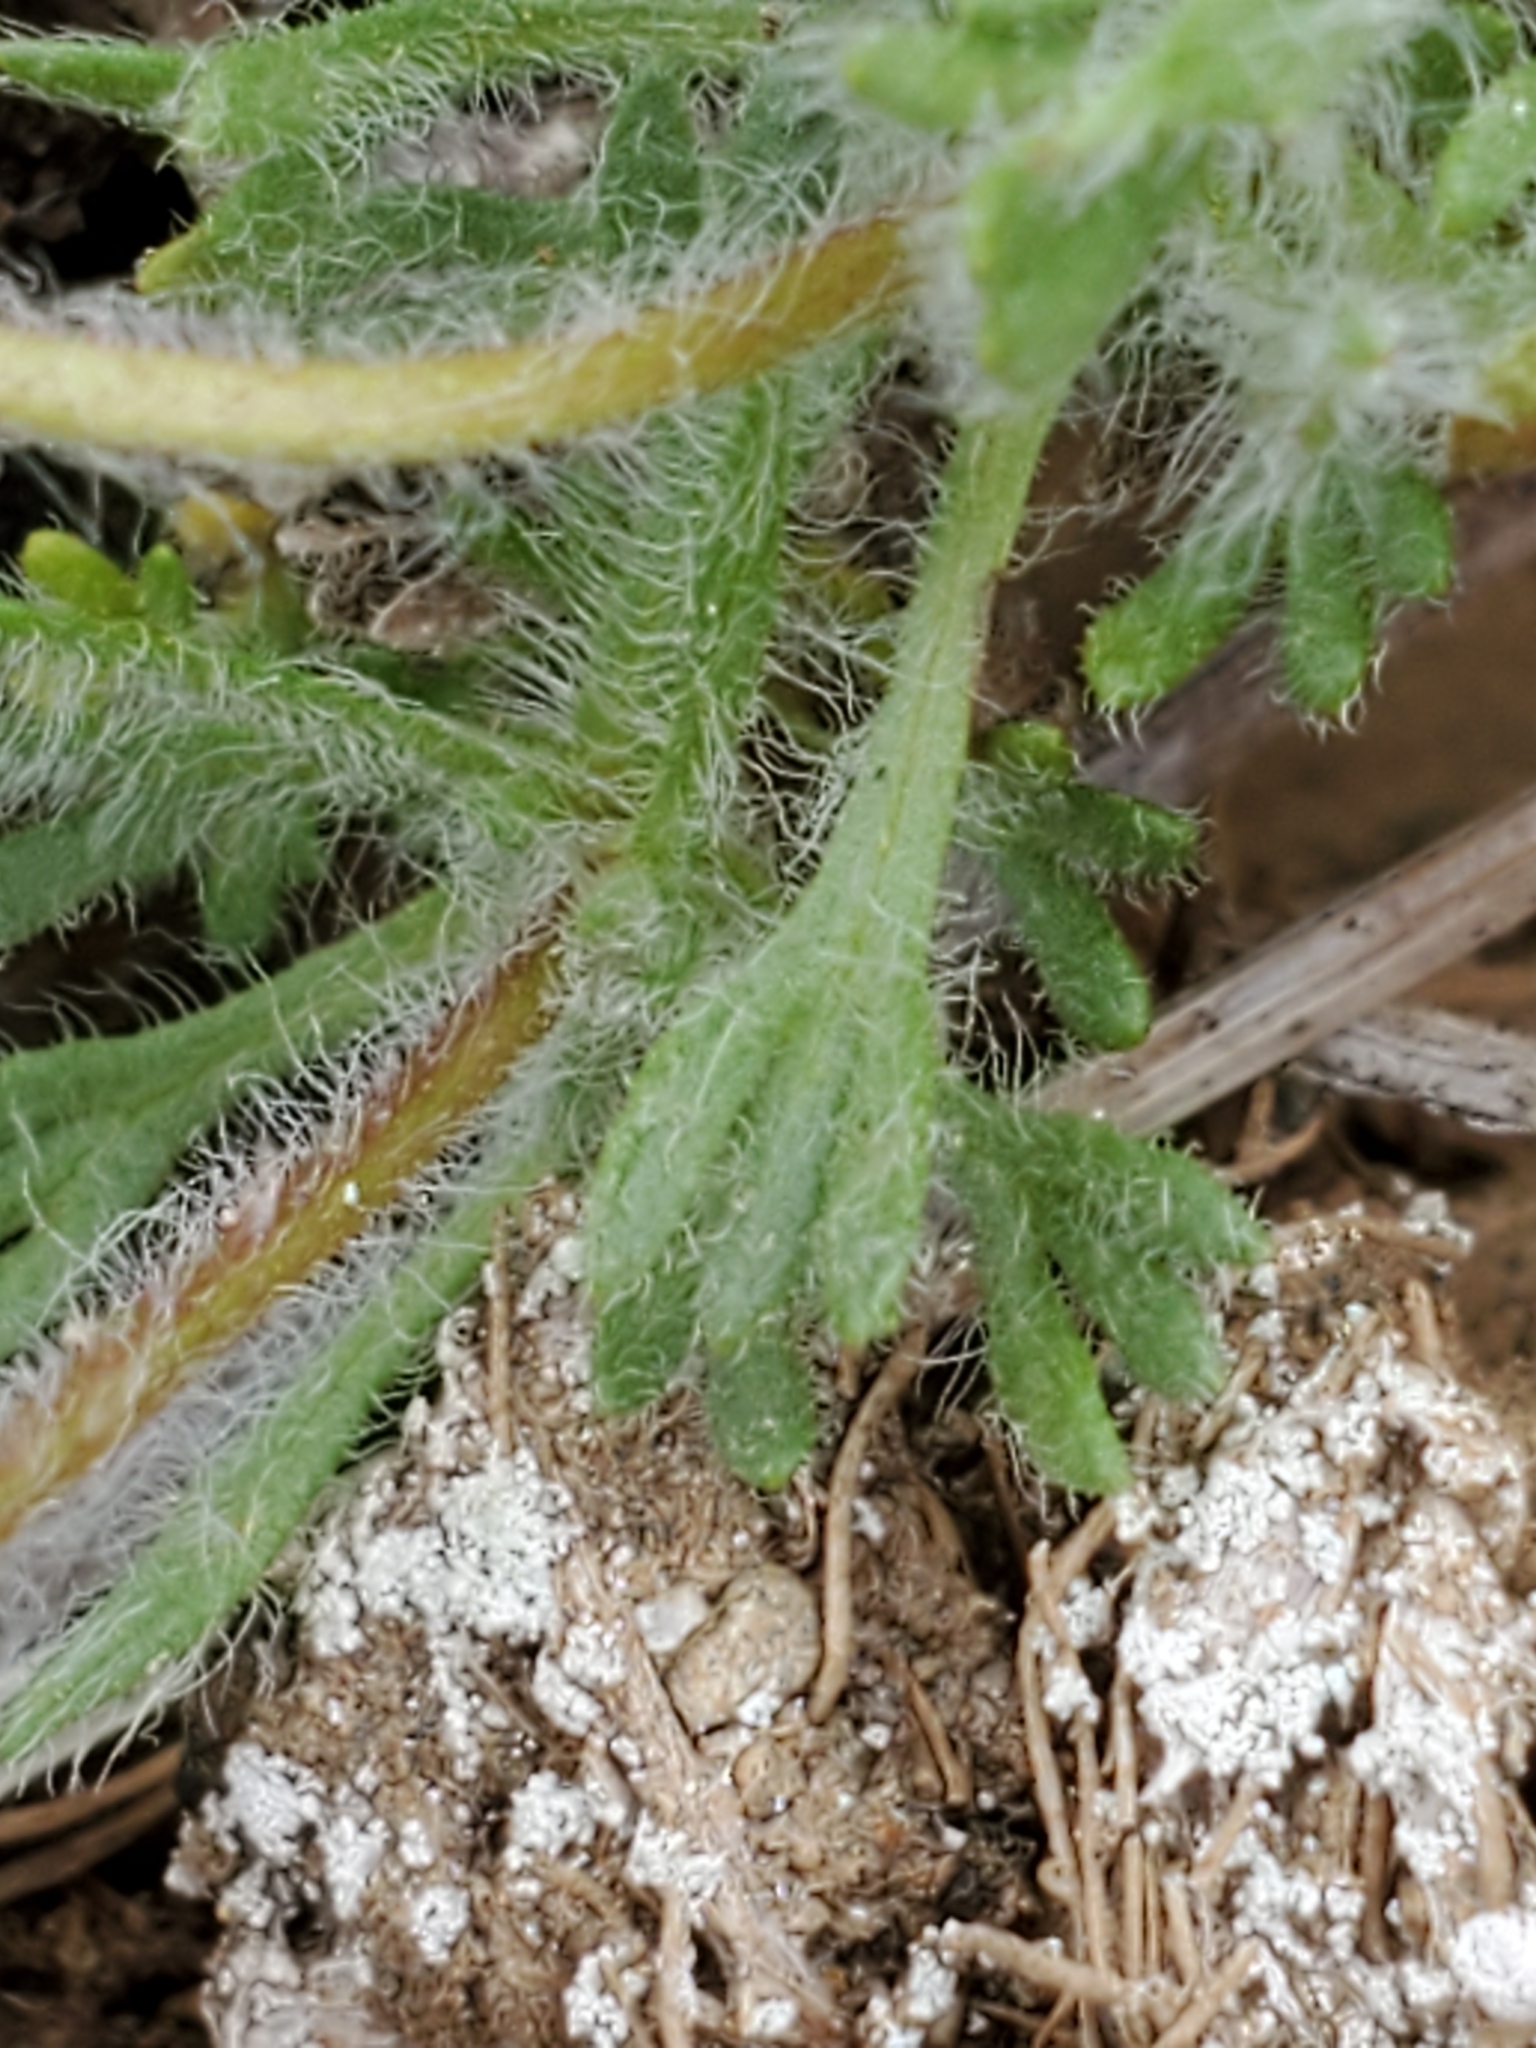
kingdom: Plantae
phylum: Tracheophyta
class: Magnoliopsida
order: Asterales
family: Asteraceae
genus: Erigeron
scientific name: Erigeron salishii
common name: Salish daisy
